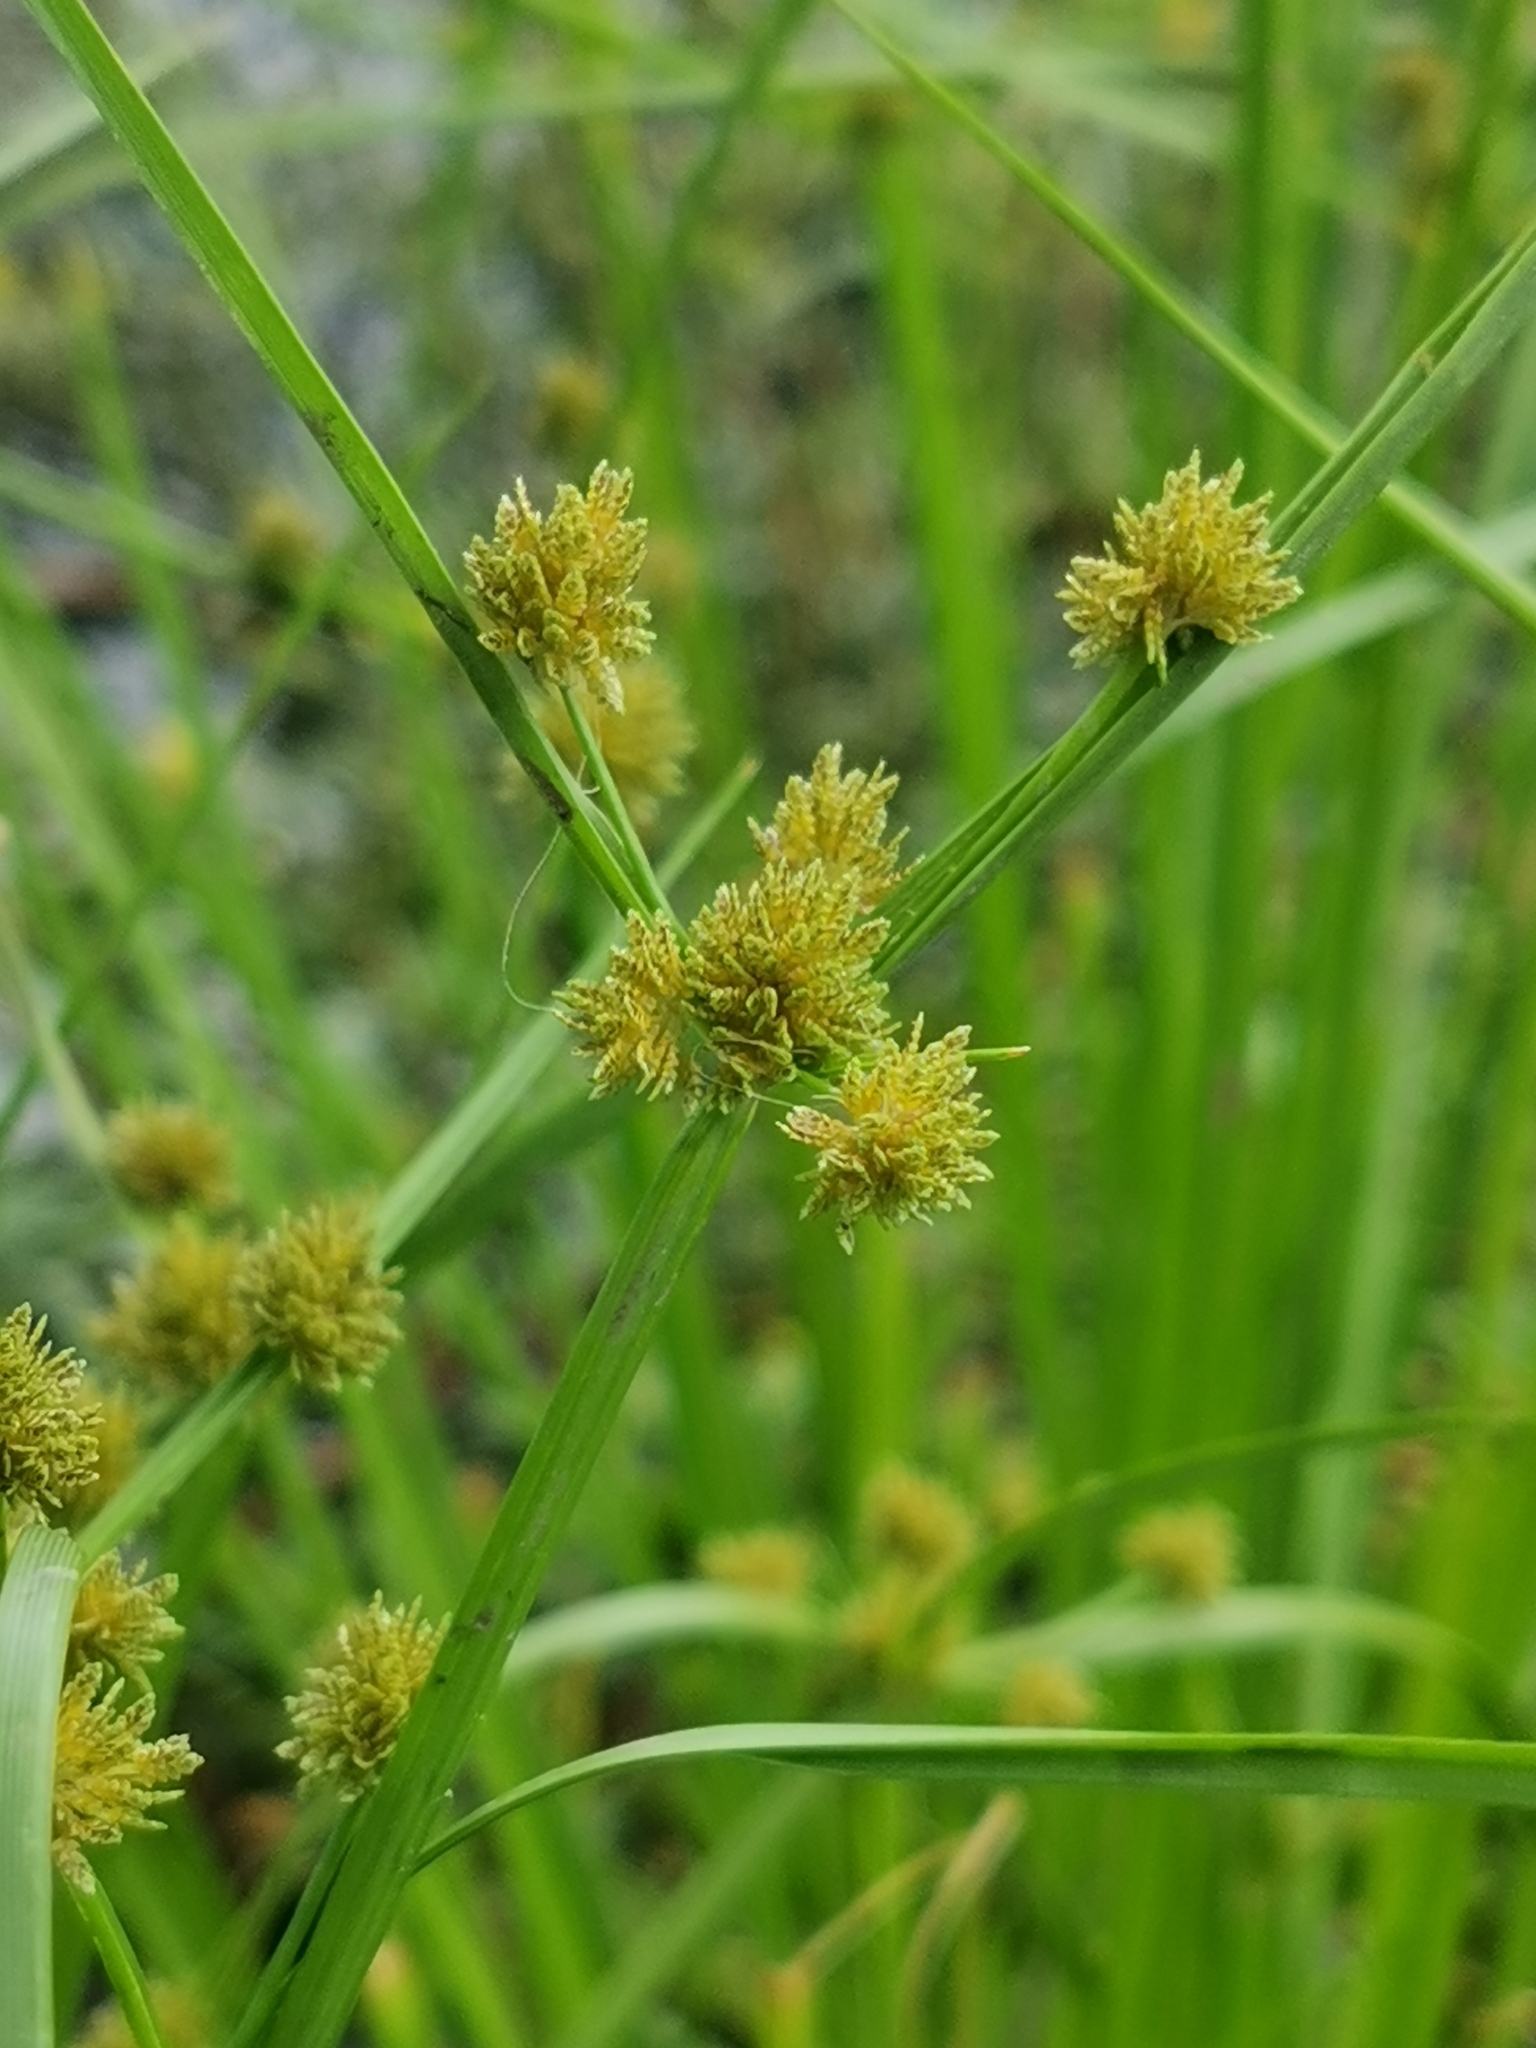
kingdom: Plantae
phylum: Tracheophyta
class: Liliopsida
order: Poales
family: Cyperaceae
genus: Cyperus
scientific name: Cyperus difformis
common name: Variable flatsedge
